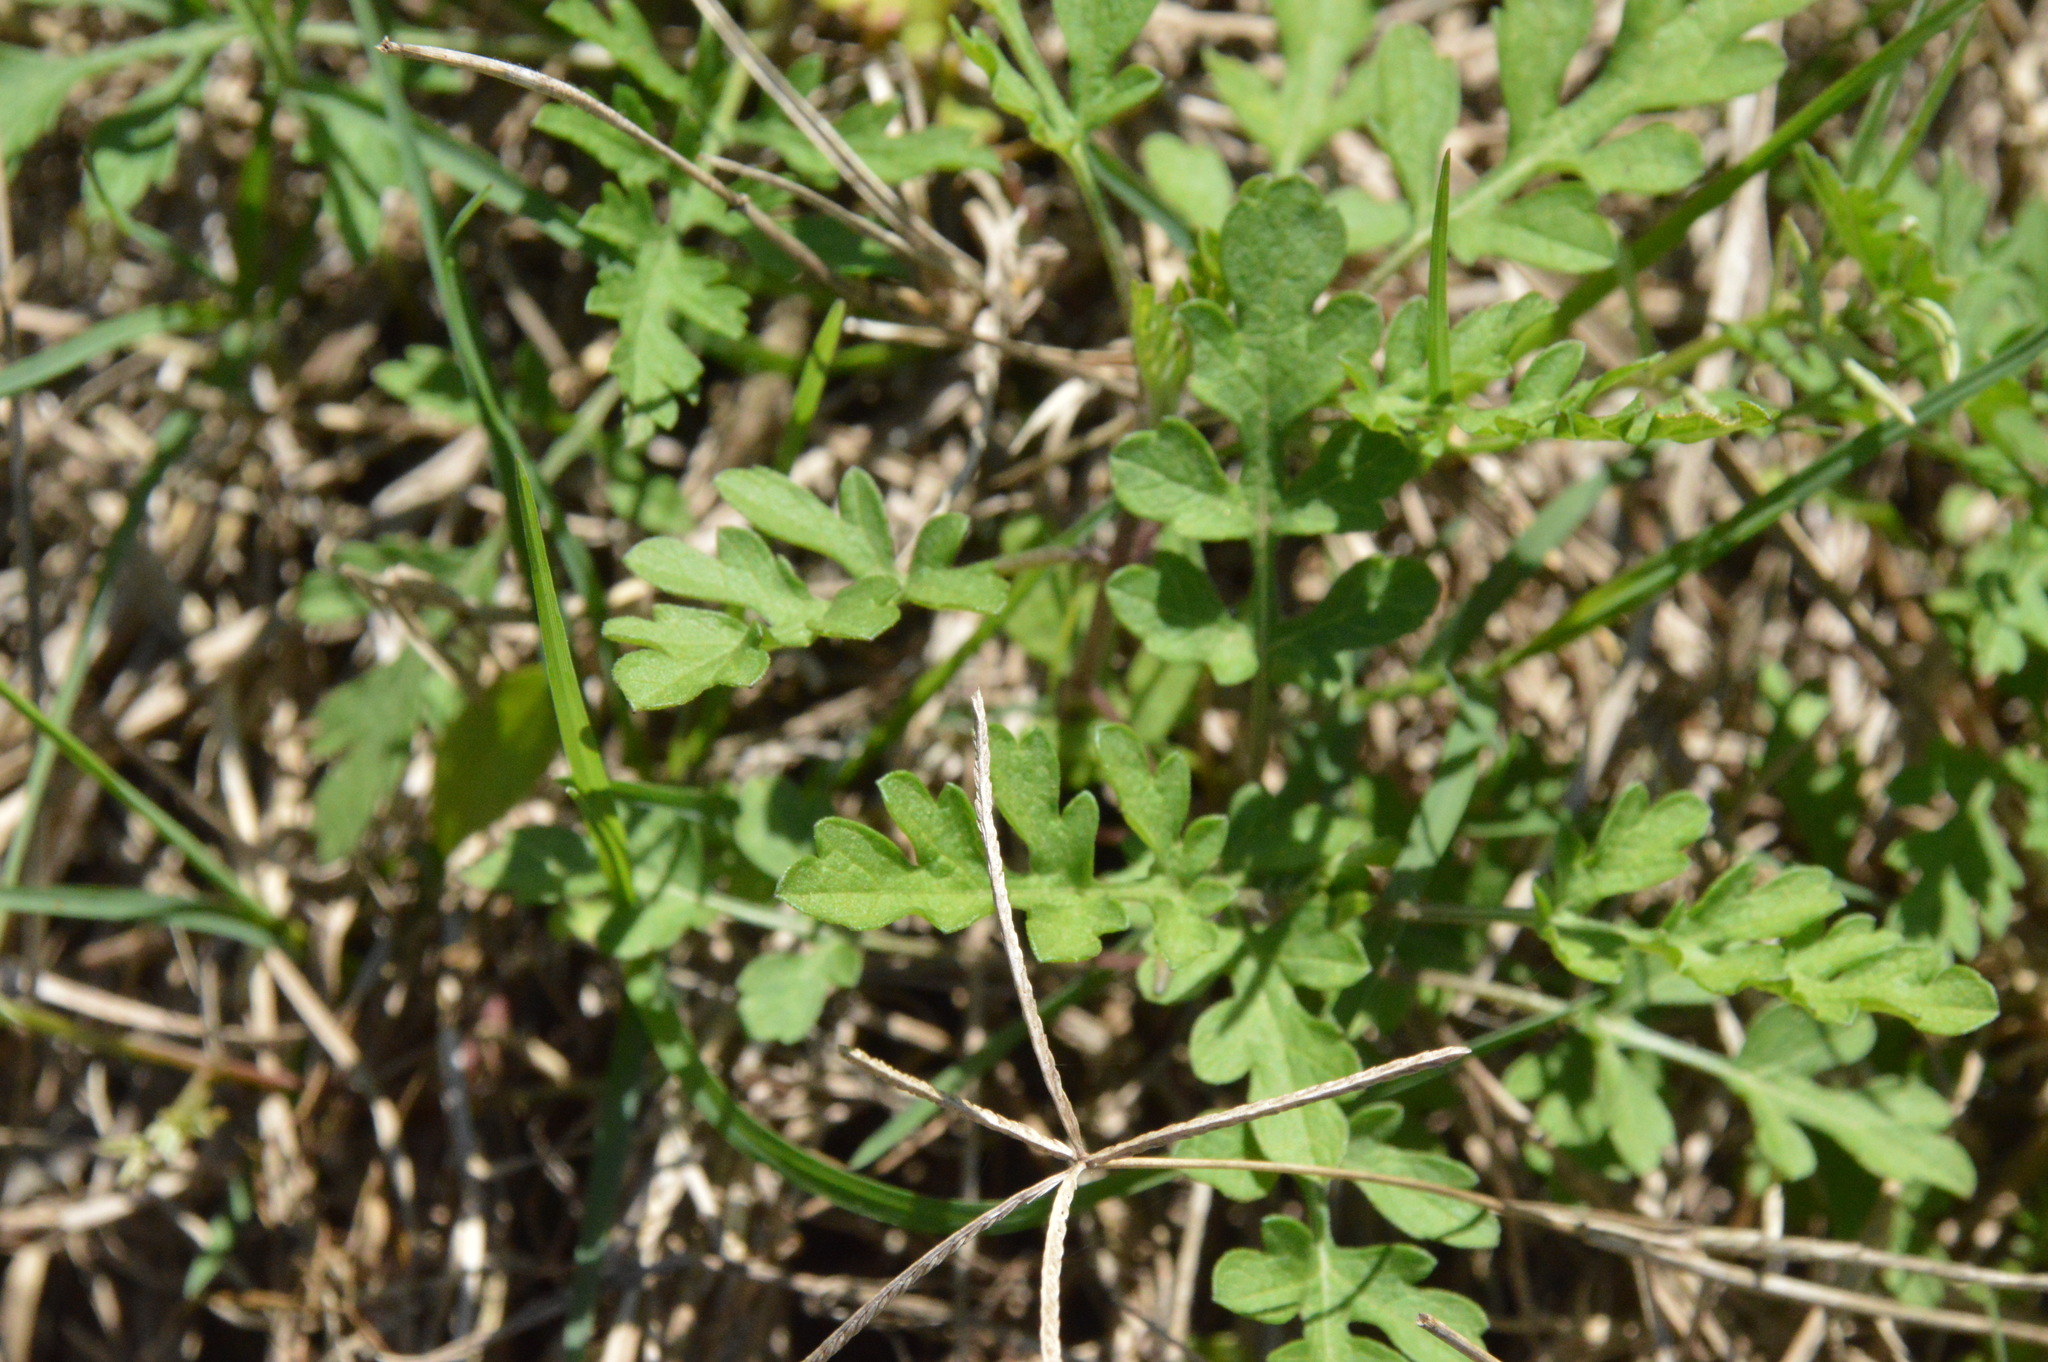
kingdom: Plantae
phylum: Tracheophyta
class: Magnoliopsida
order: Asterales
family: Asteraceae
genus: Ambrosia
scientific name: Ambrosia psilostachya
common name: Perennial ragweed
